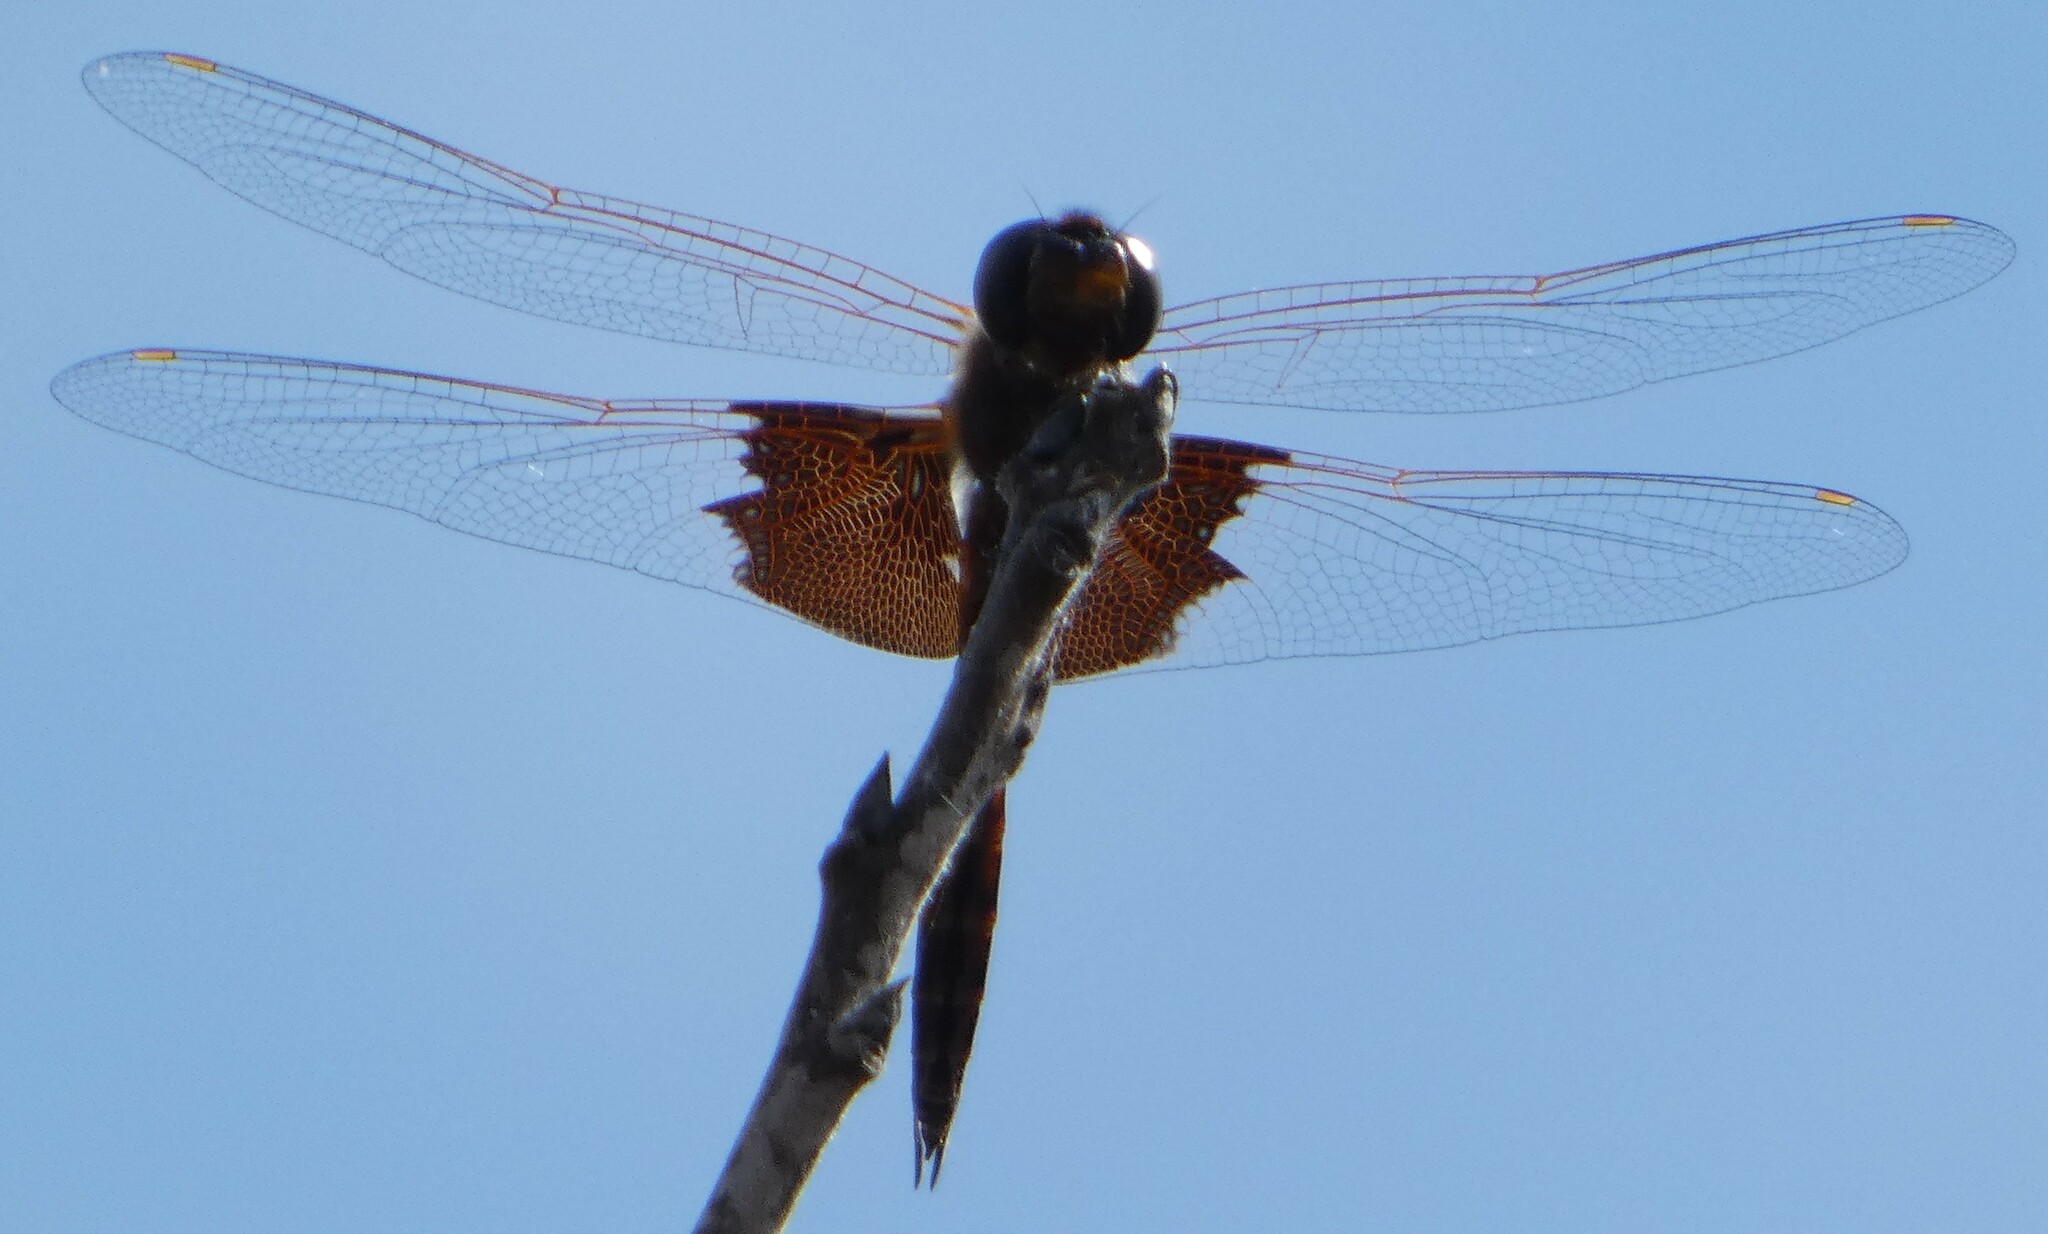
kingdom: Animalia
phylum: Arthropoda
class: Insecta
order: Odonata
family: Libellulidae
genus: Tramea
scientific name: Tramea carolina
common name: Carolina saddlebags
